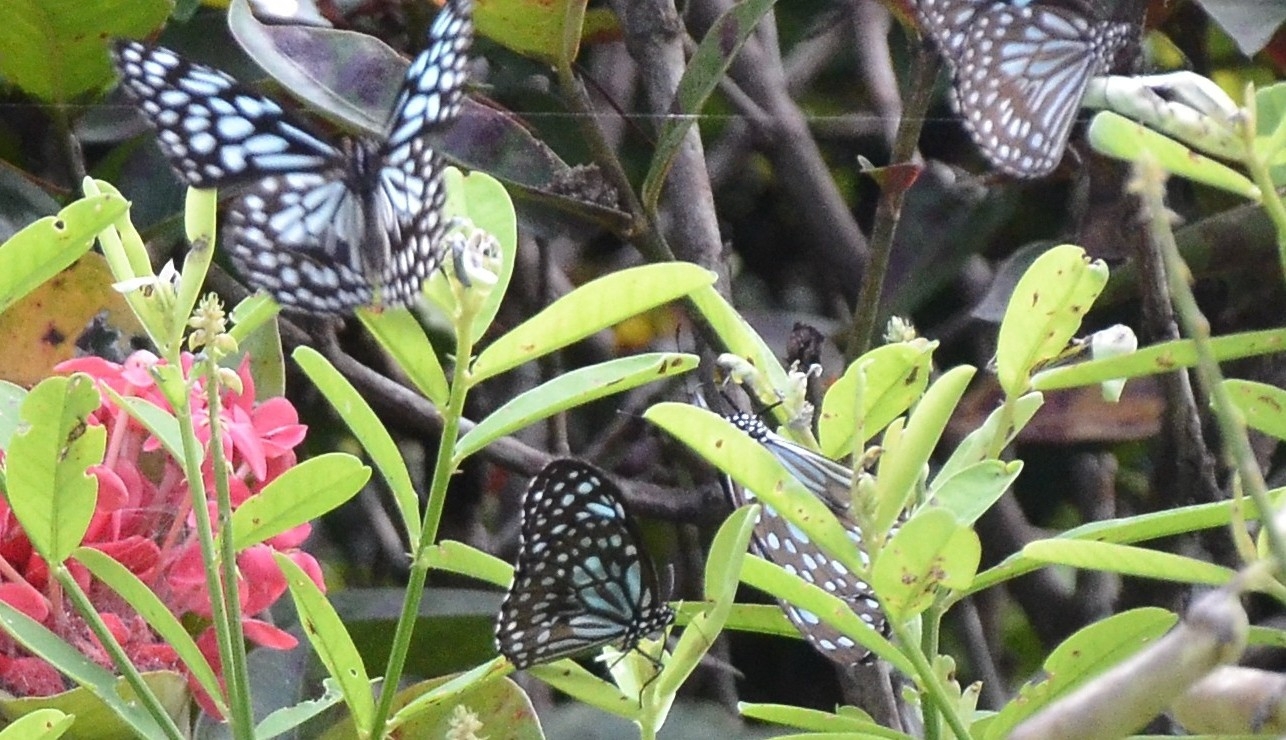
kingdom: Animalia
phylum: Arthropoda
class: Insecta
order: Lepidoptera
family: Nymphalidae
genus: Tirumala
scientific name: Tirumala septentrionis
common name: Dark blue tiger butterfly
